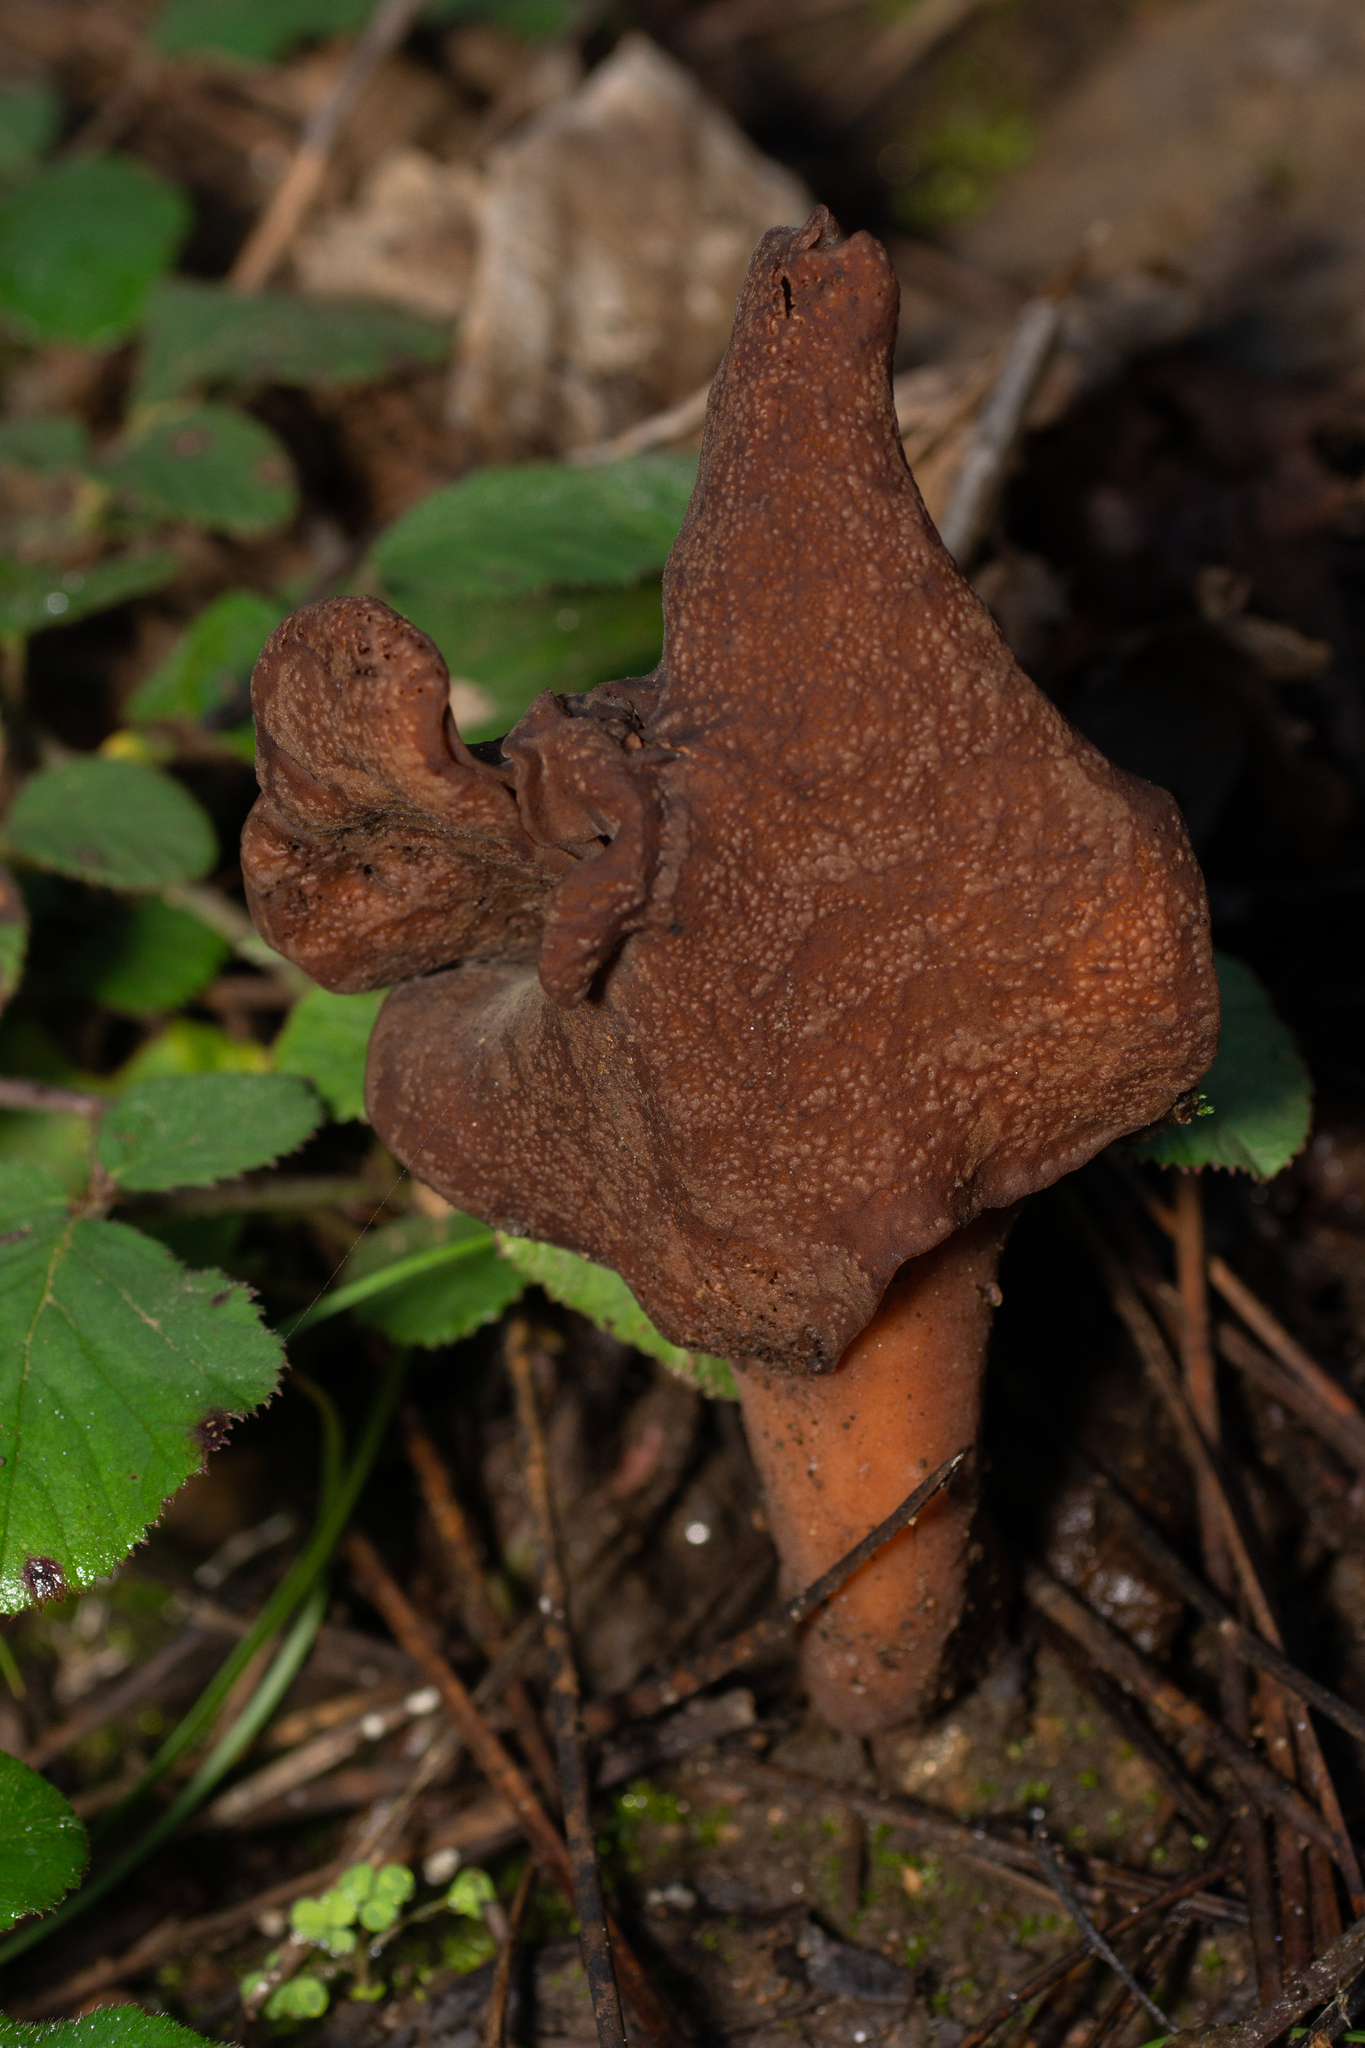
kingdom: Fungi
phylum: Ascomycota
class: Pezizomycetes
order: Pezizales
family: Discinaceae
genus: Gyromitra
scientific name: Gyromitra infula
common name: Pouched false morel
